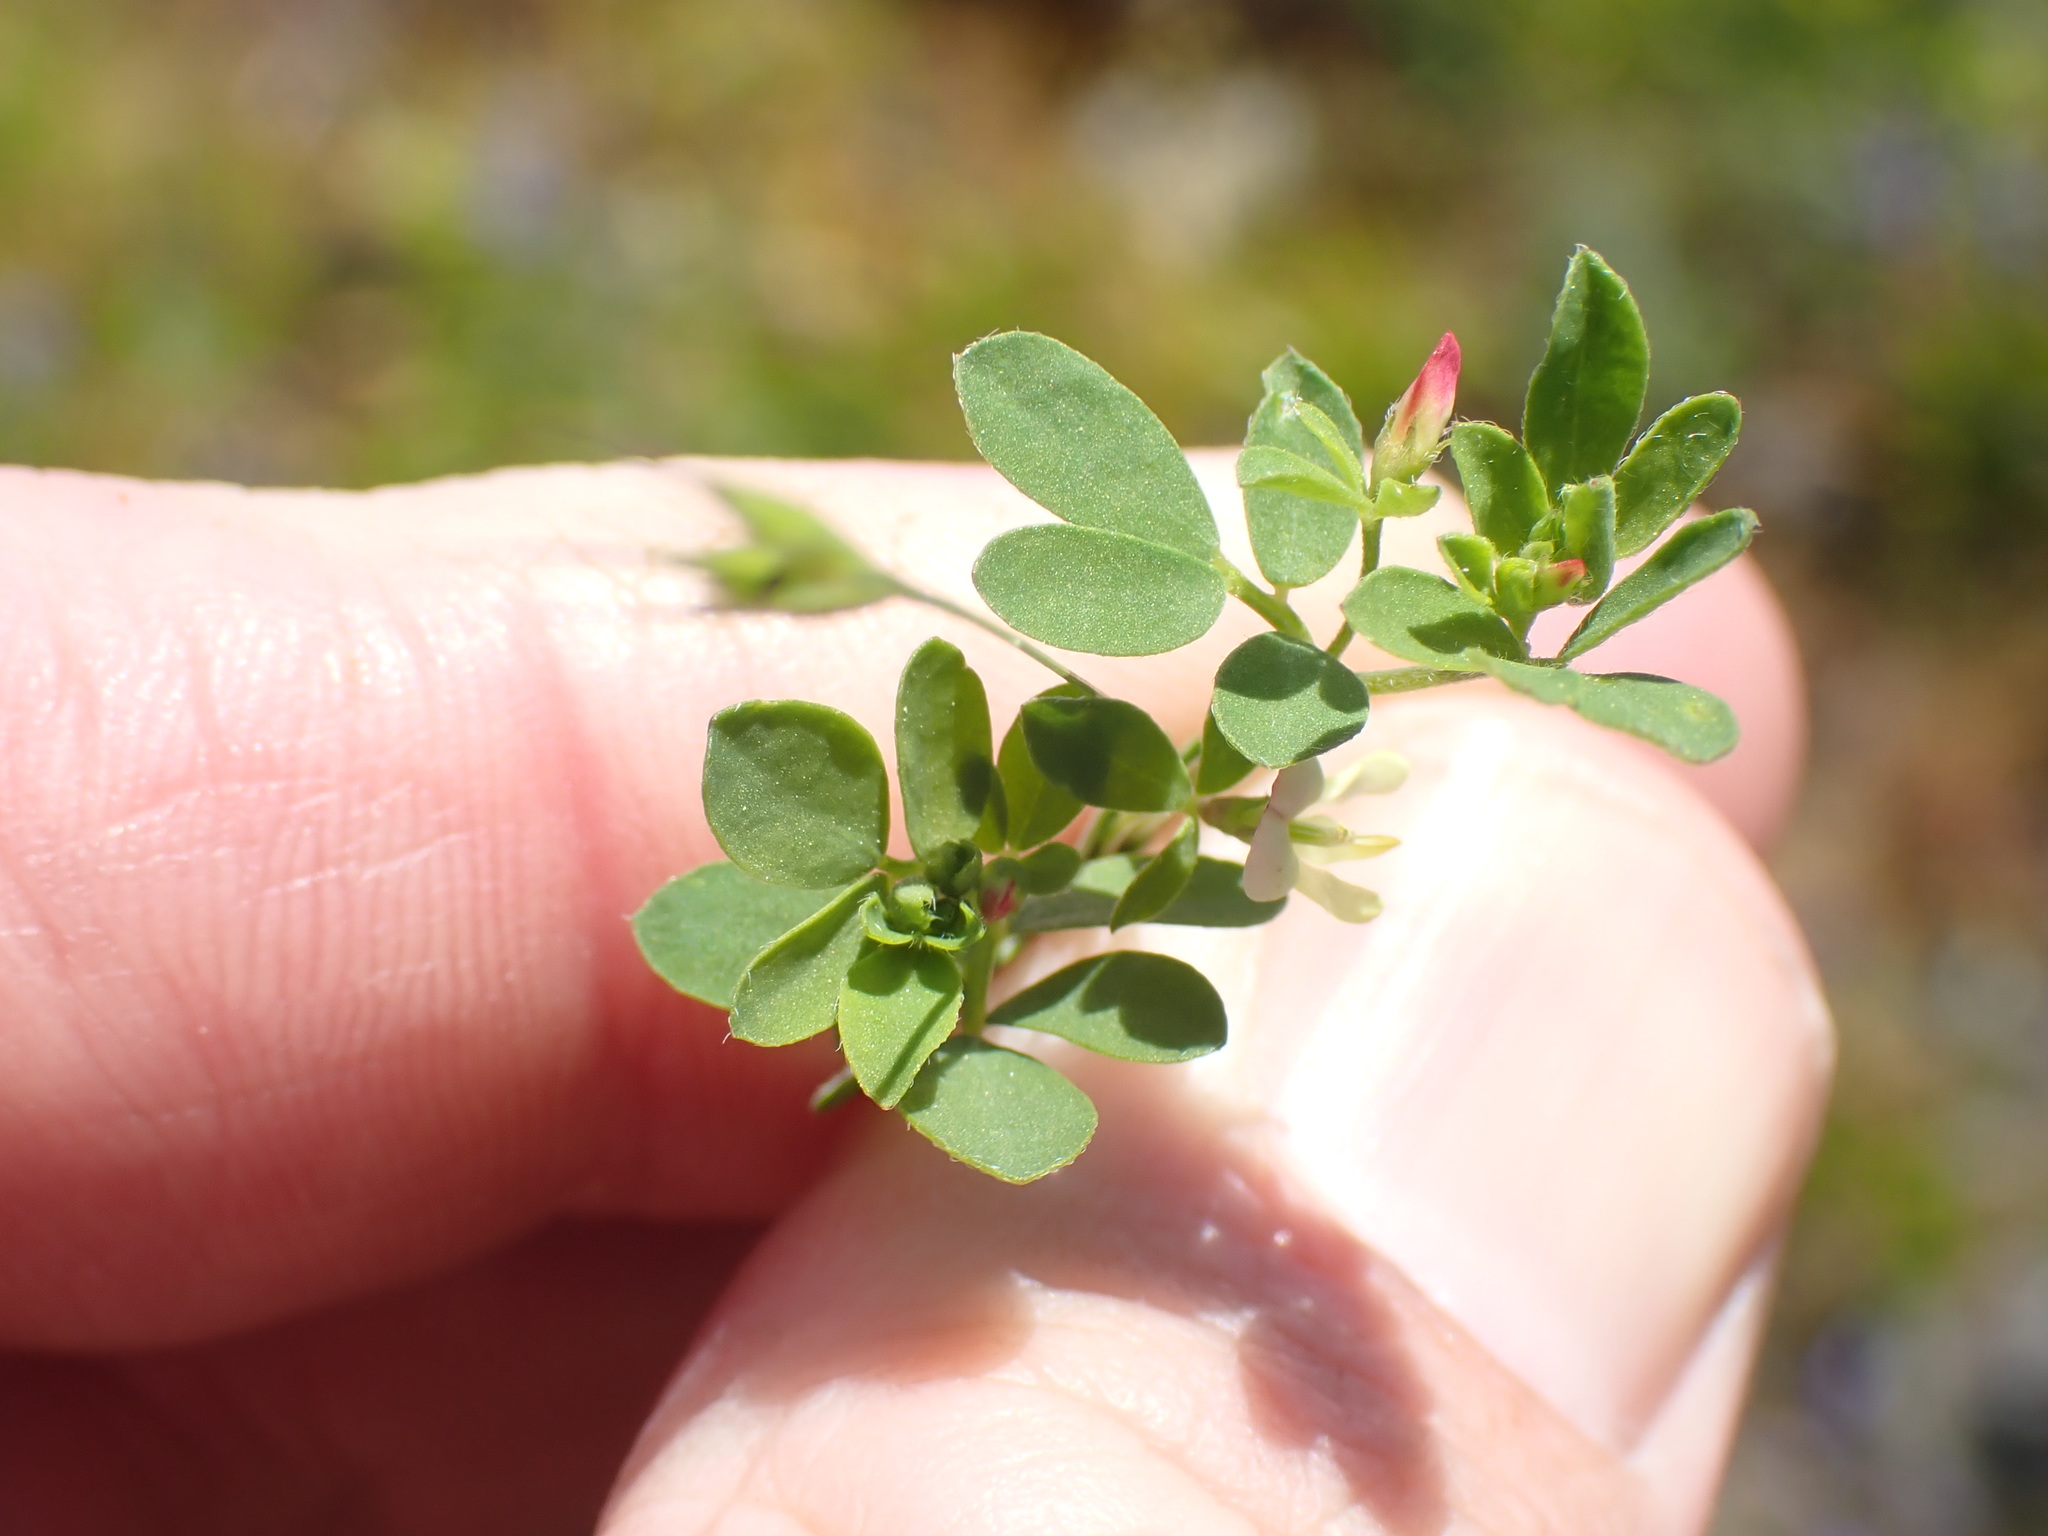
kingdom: Plantae
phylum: Tracheophyta
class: Magnoliopsida
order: Fabales
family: Fabaceae
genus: Acmispon
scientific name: Acmispon parviflorus
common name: Desert deer-vetch
